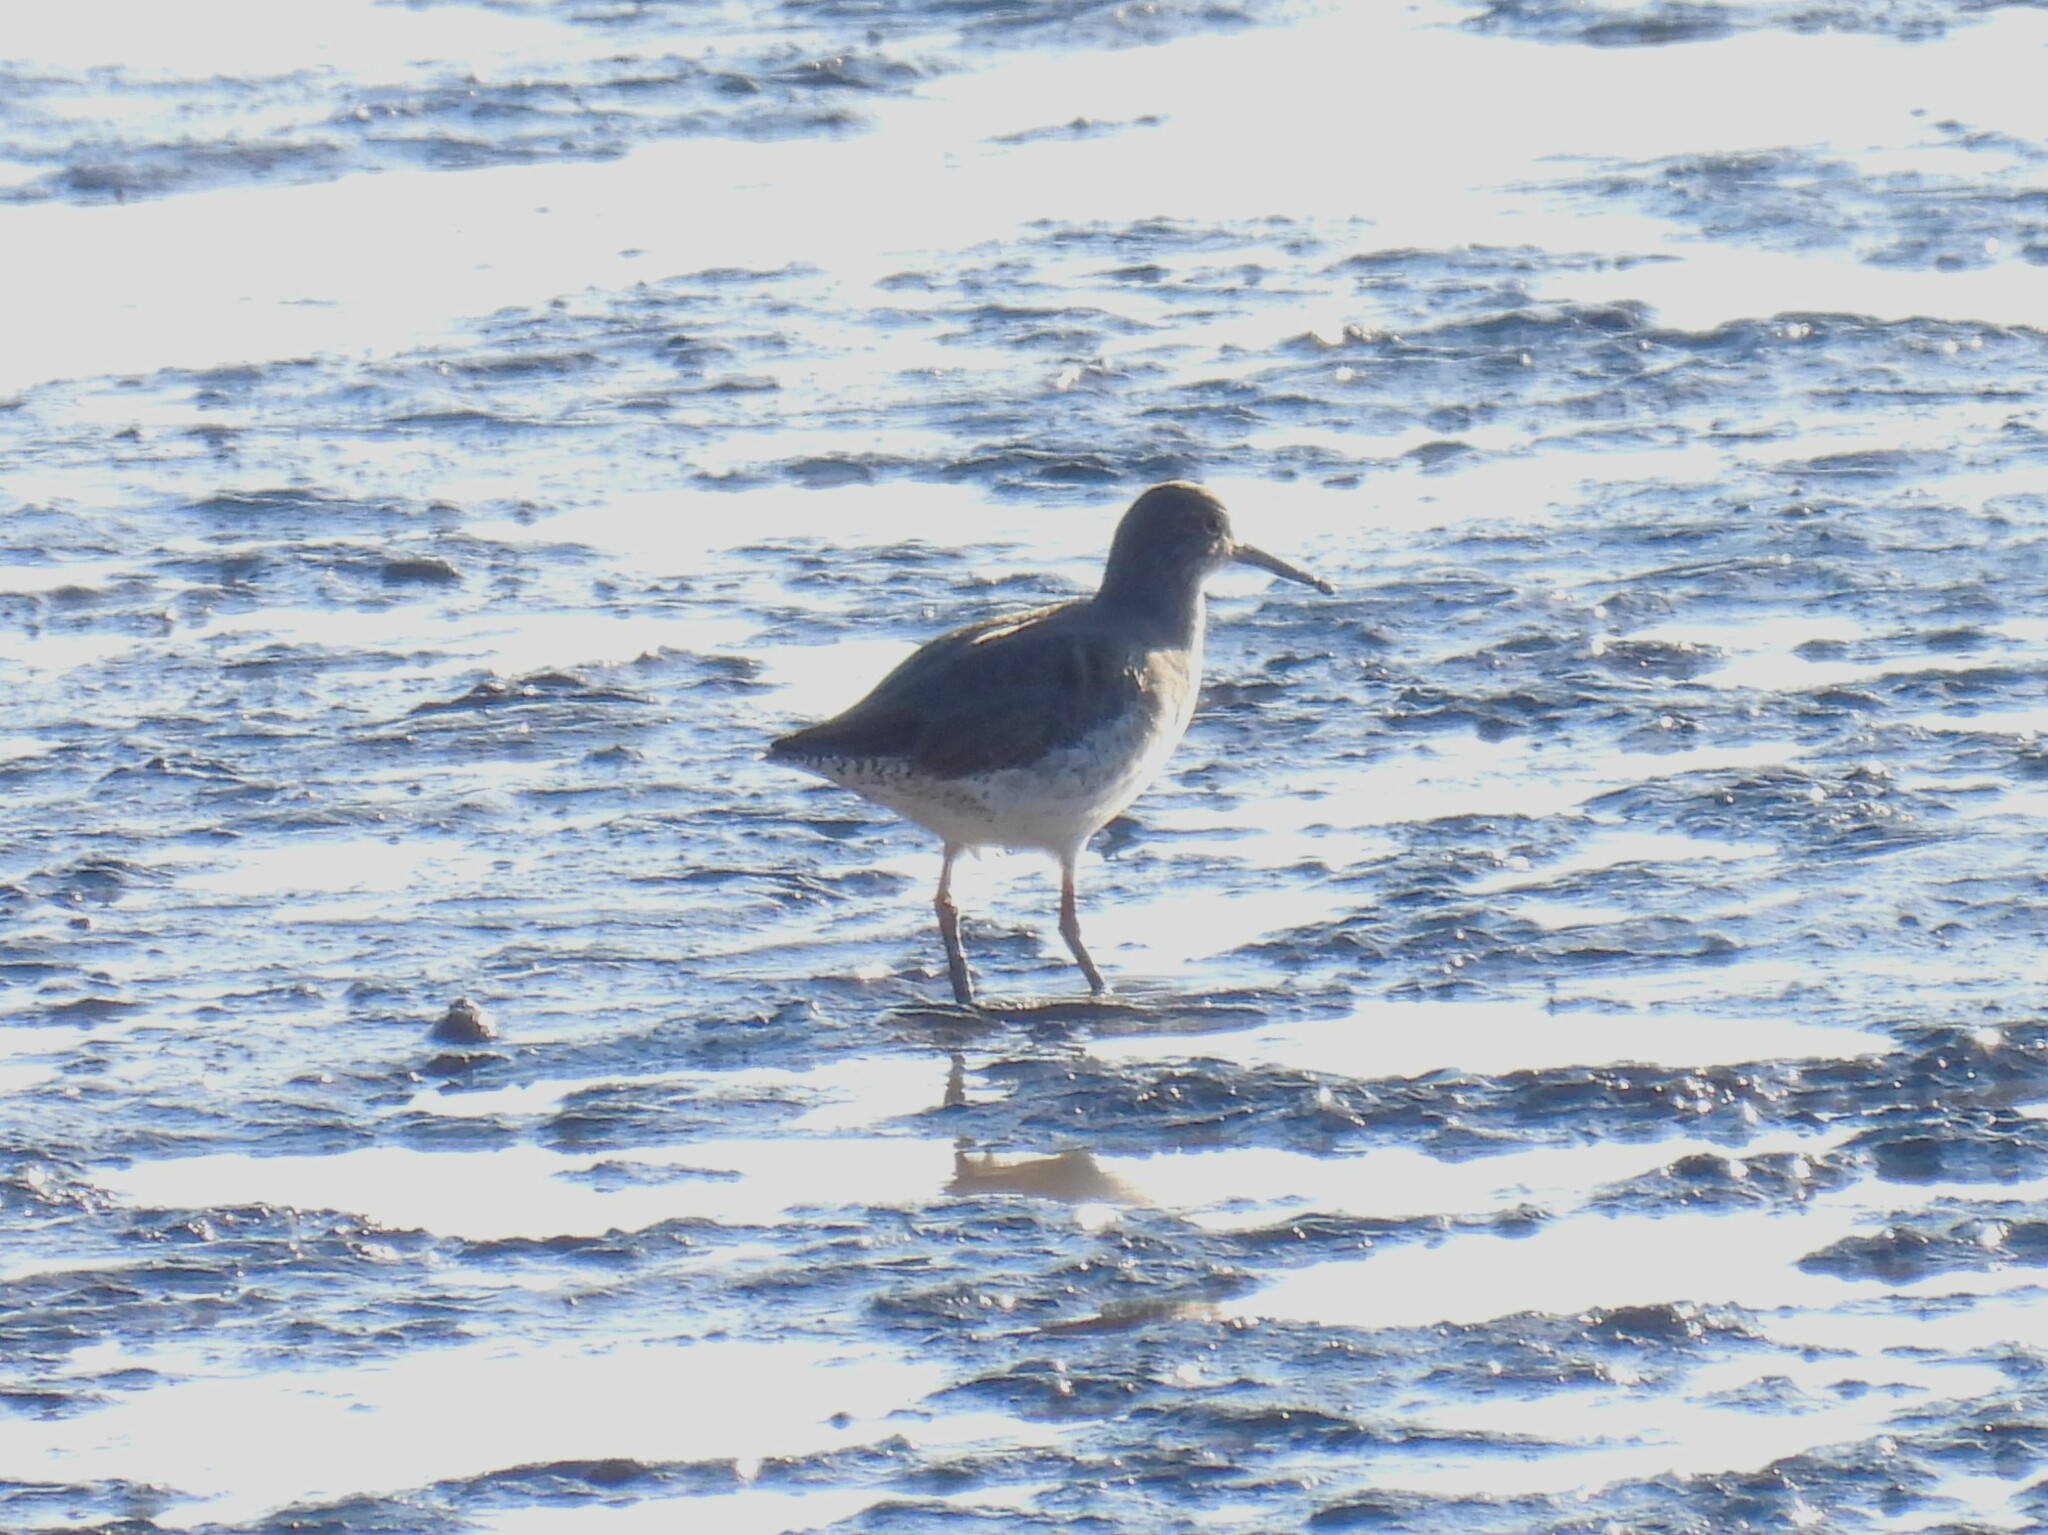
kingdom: Animalia
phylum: Chordata
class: Aves
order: Charadriiformes
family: Scolopacidae
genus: Tringa
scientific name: Tringa totanus
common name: Common redshank
